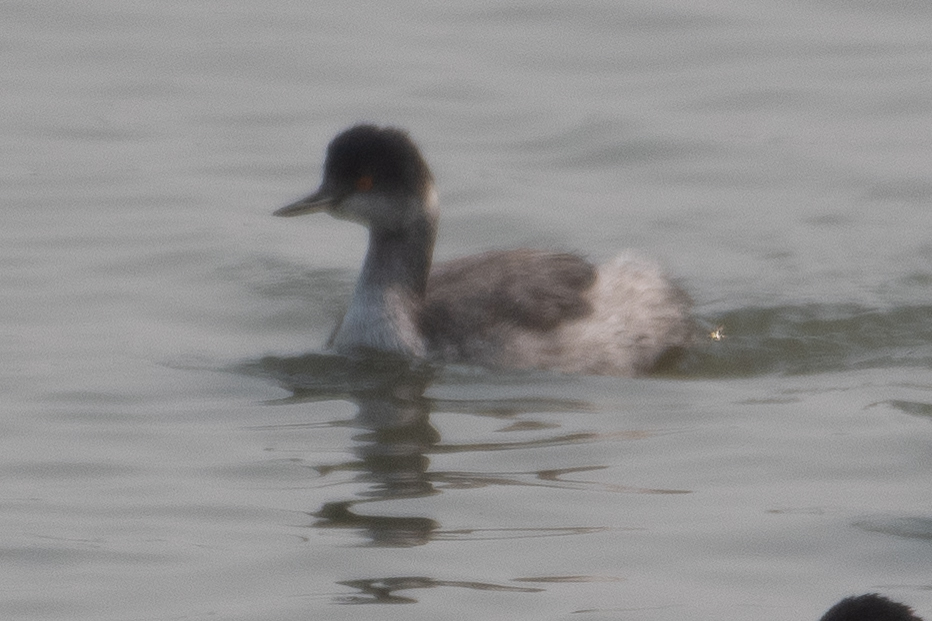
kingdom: Animalia
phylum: Chordata
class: Aves
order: Podicipediformes
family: Podicipedidae
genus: Podiceps
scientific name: Podiceps nigricollis
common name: Black-necked grebe
